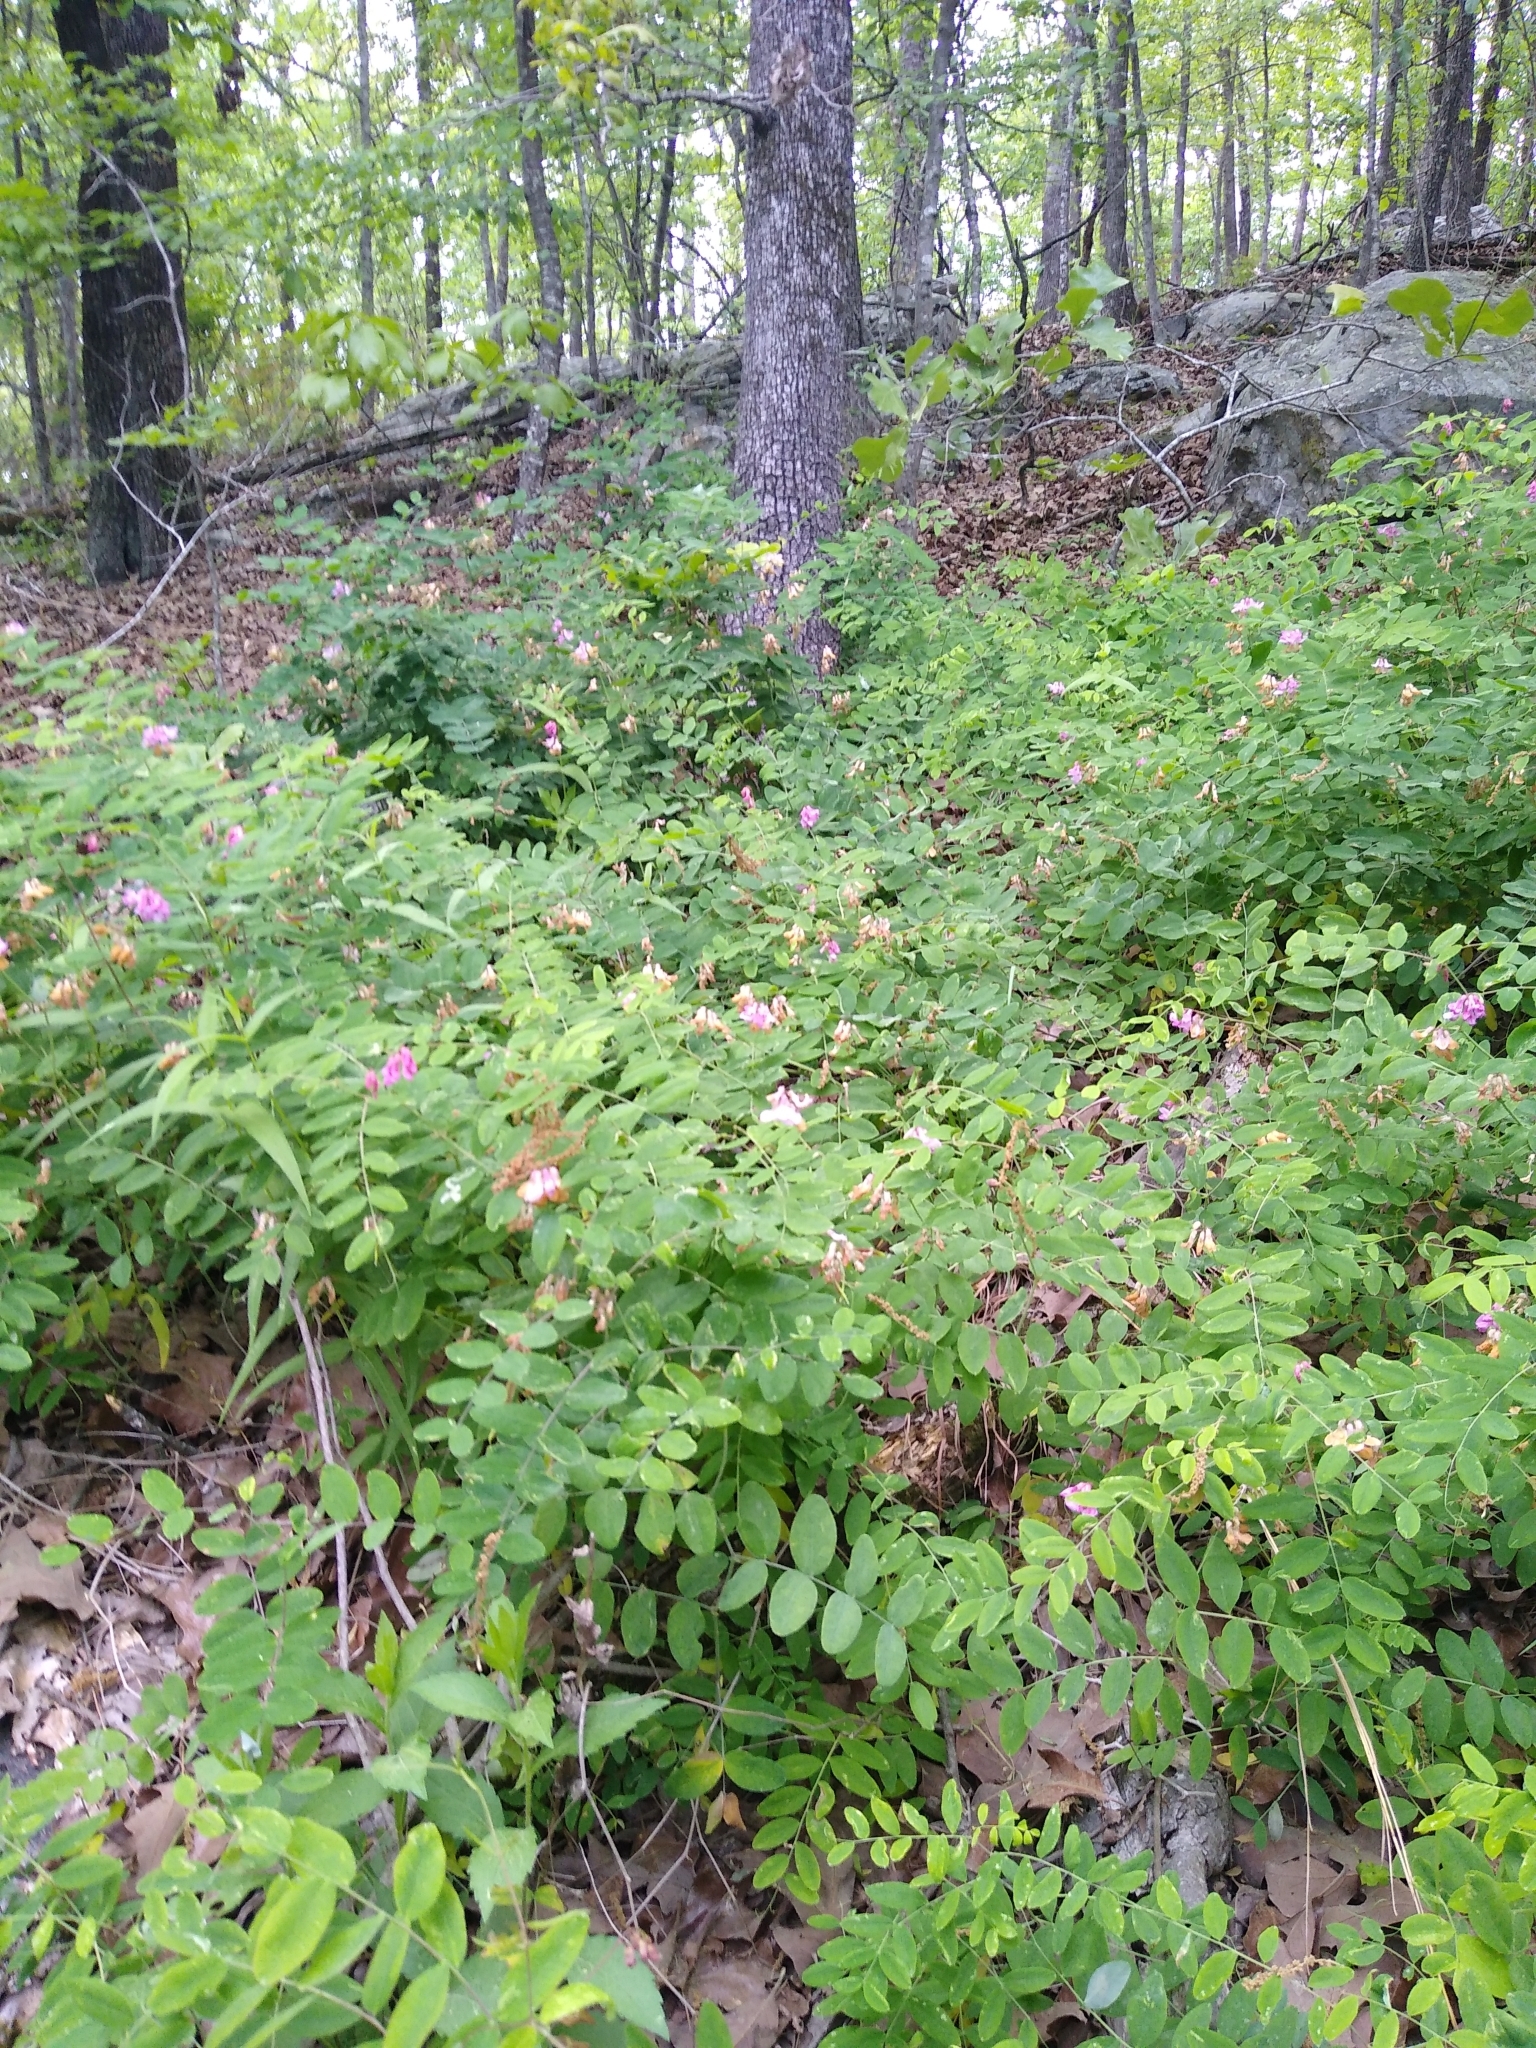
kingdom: Plantae
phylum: Tracheophyta
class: Magnoliopsida
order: Fabales
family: Fabaceae
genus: Lathyrus
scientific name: Lathyrus venosus
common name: Forest-pea
